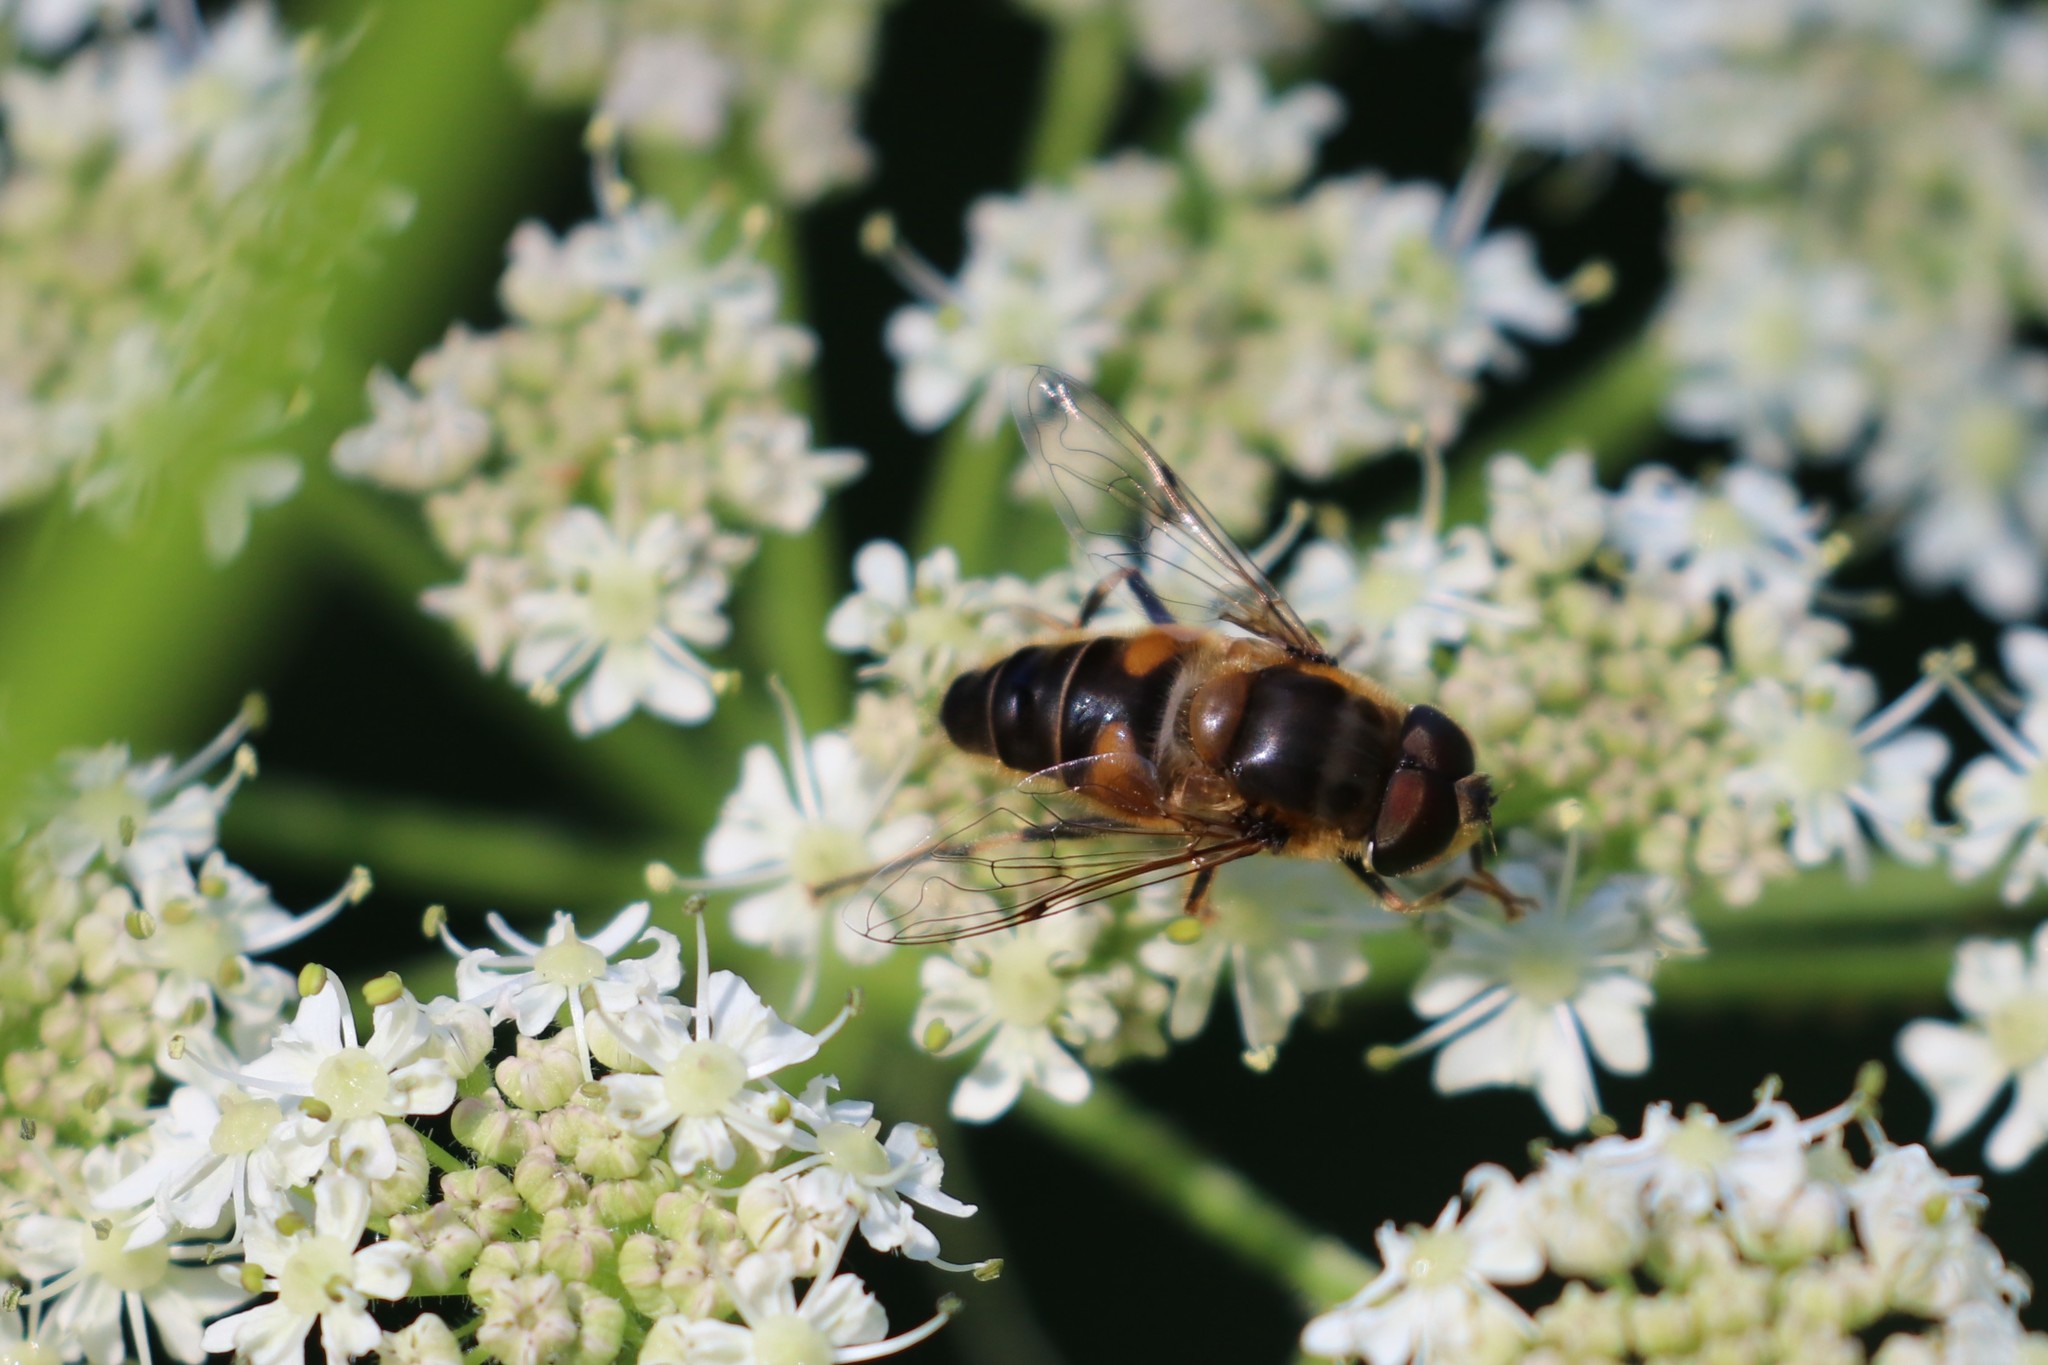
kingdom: Animalia
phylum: Arthropoda
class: Insecta
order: Diptera
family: Syrphidae
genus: Eristalis
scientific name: Eristalis pertinax
